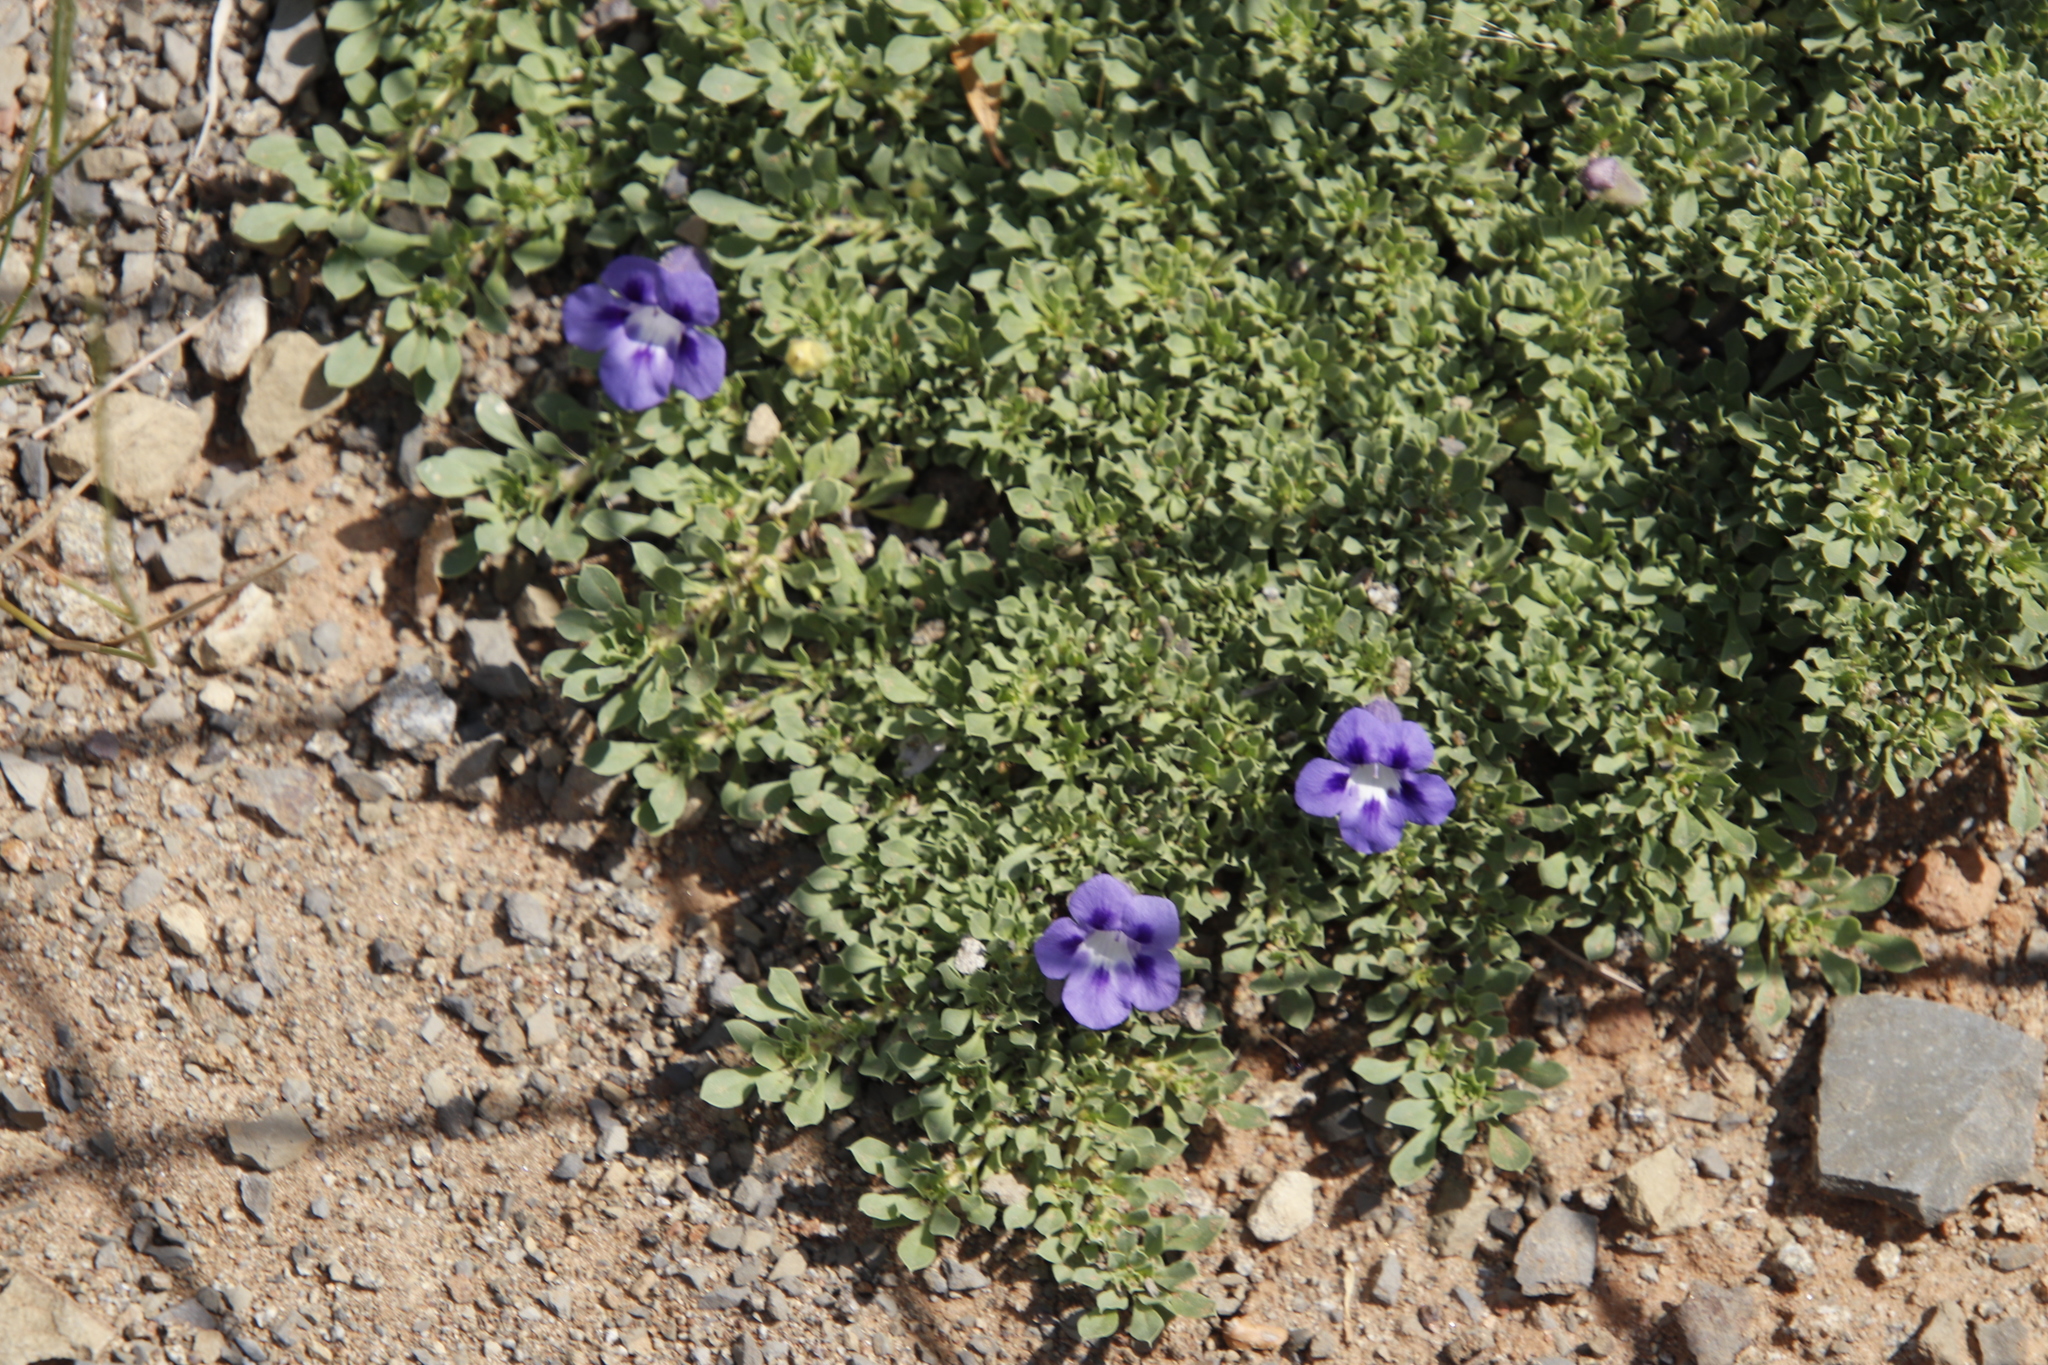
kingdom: Plantae
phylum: Tracheophyta
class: Magnoliopsida
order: Lamiales
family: Scrophulariaceae
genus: Aptosimum
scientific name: Aptosimum procumbens
